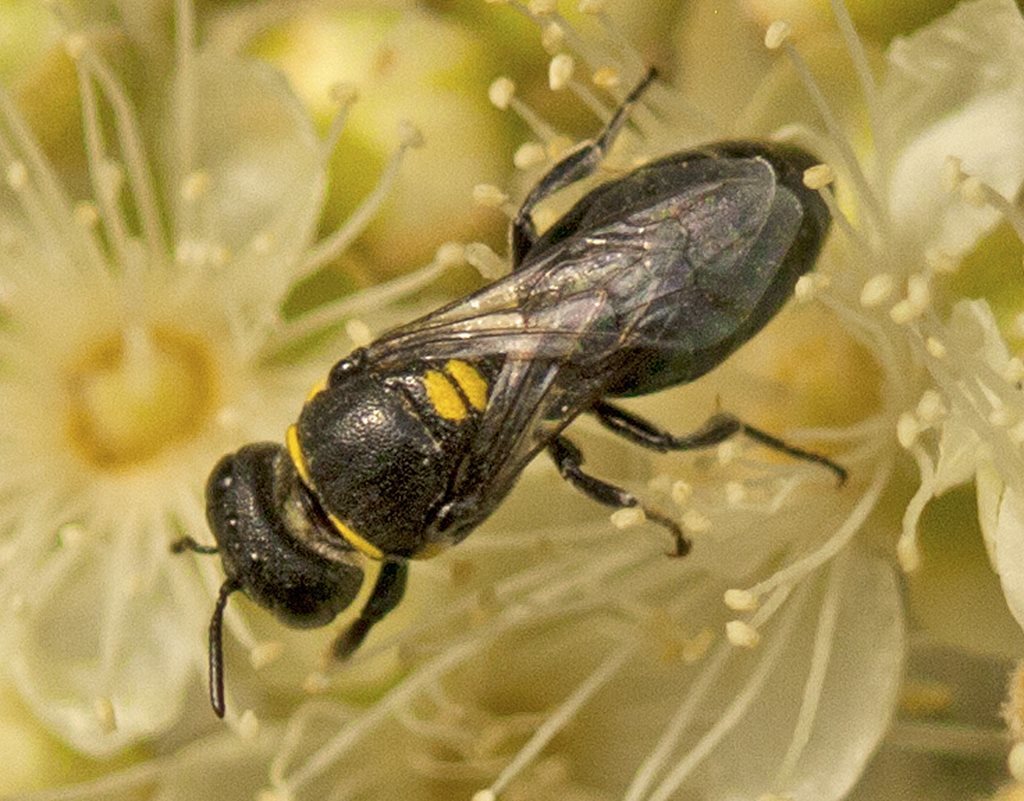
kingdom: Animalia
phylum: Arthropoda
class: Insecta
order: Hymenoptera
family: Colletidae
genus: Hylaeus
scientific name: Hylaeus cyanurus
